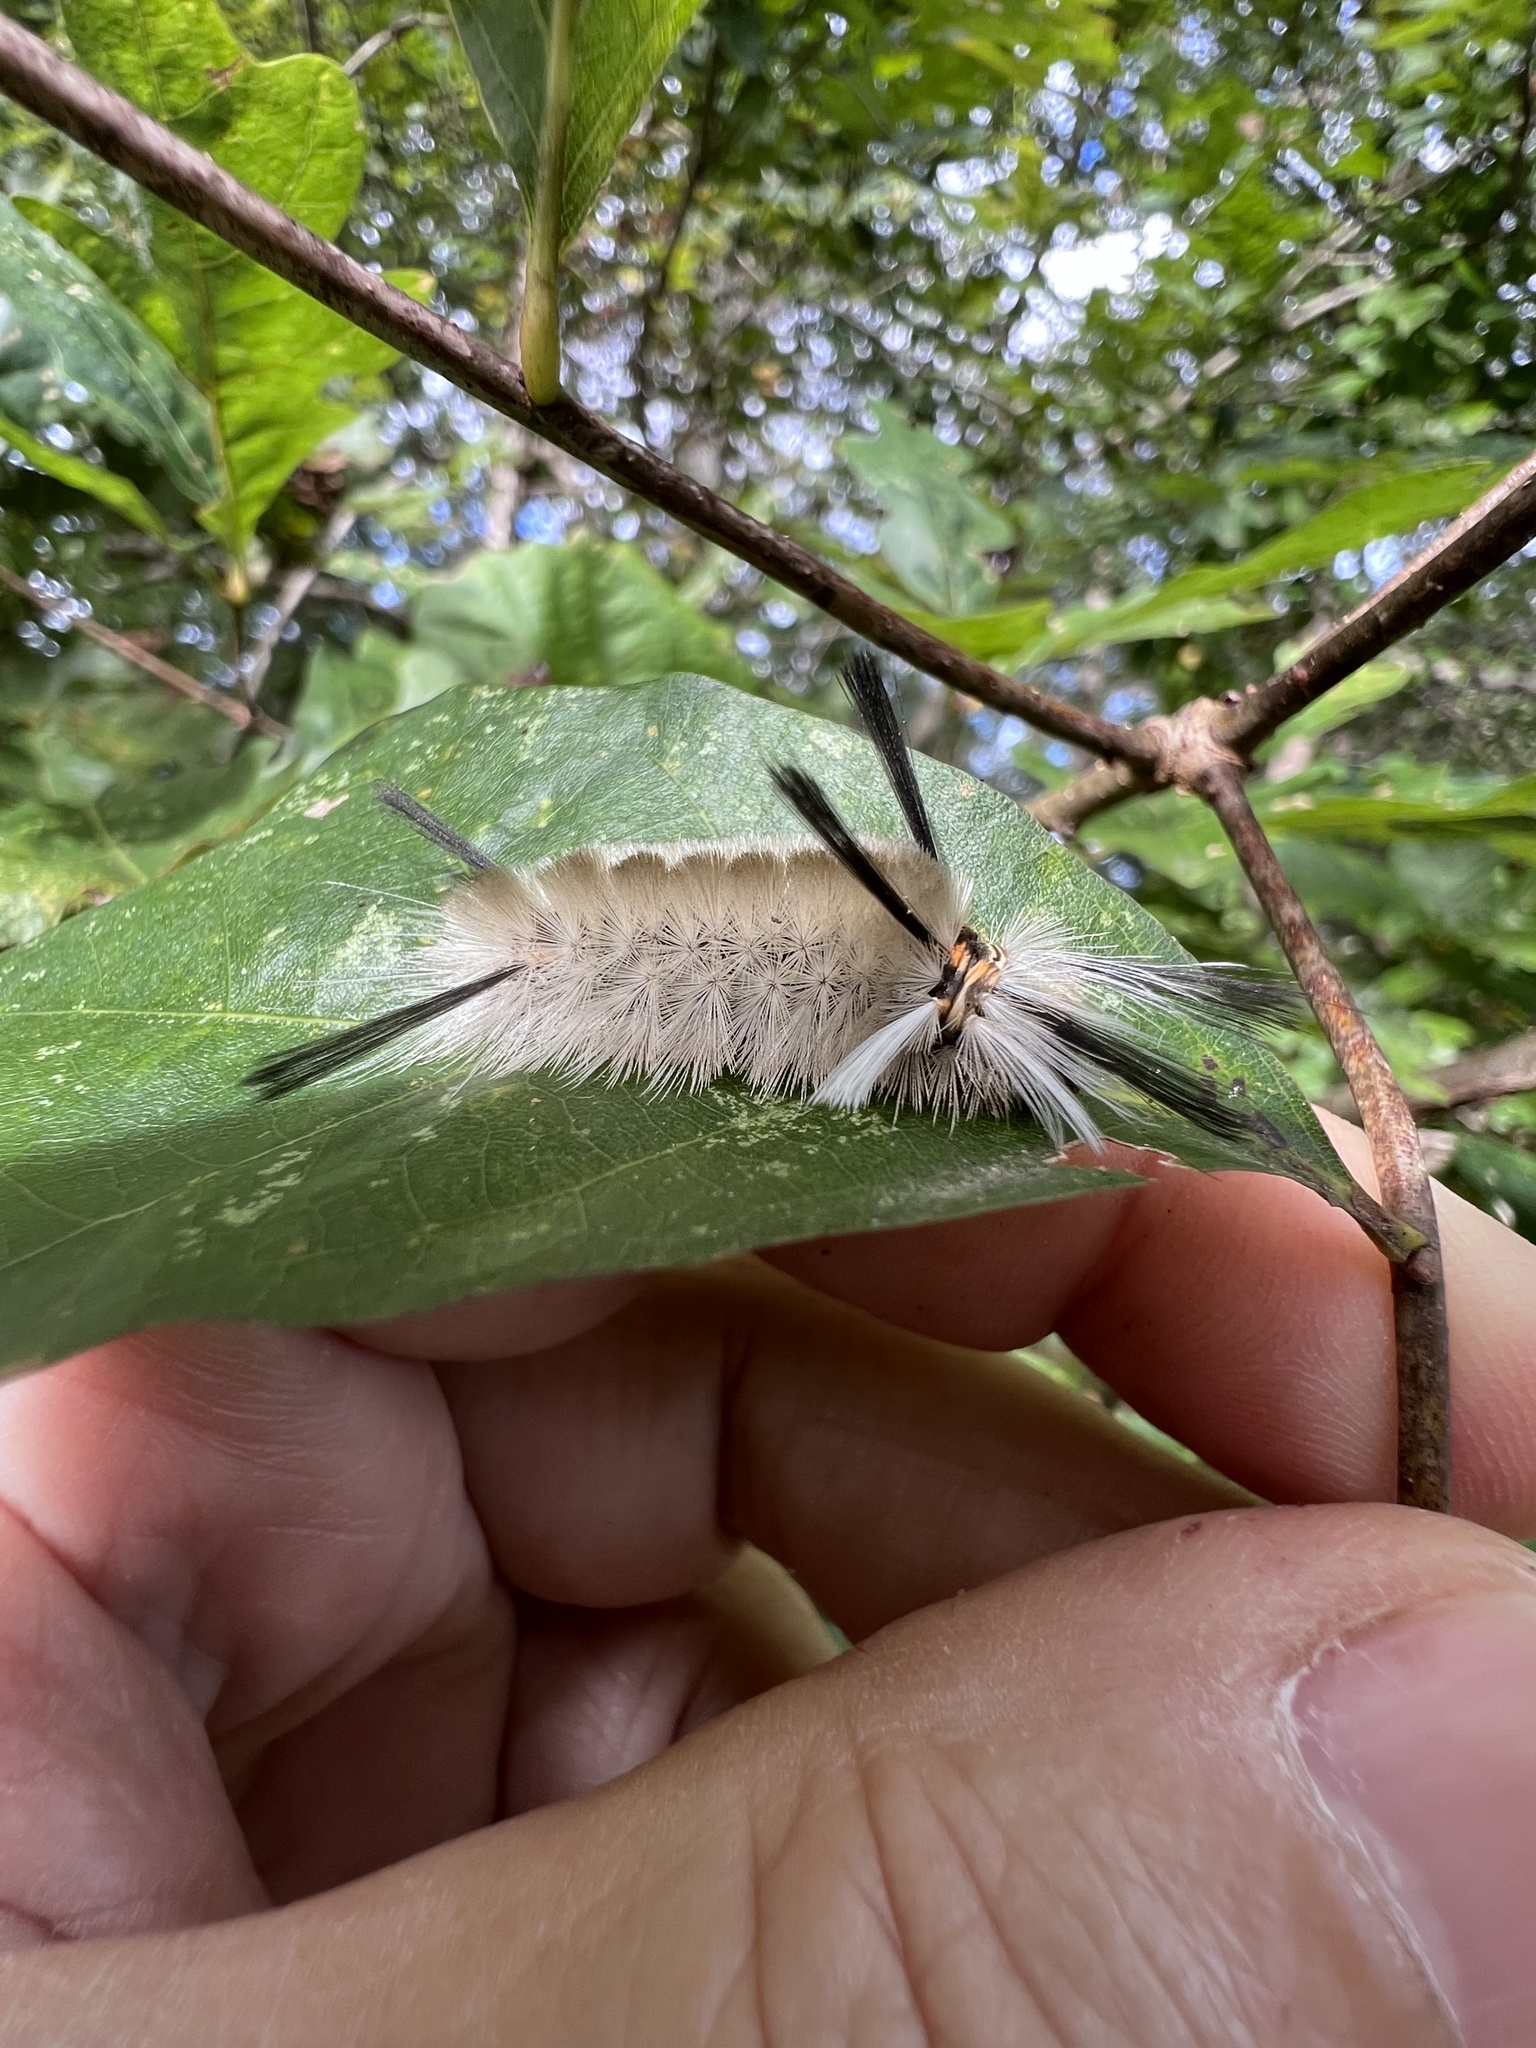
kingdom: Animalia
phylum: Arthropoda
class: Insecta
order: Lepidoptera
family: Erebidae
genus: Halysidota
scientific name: Halysidota tessellaris
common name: Banded tussock moth
